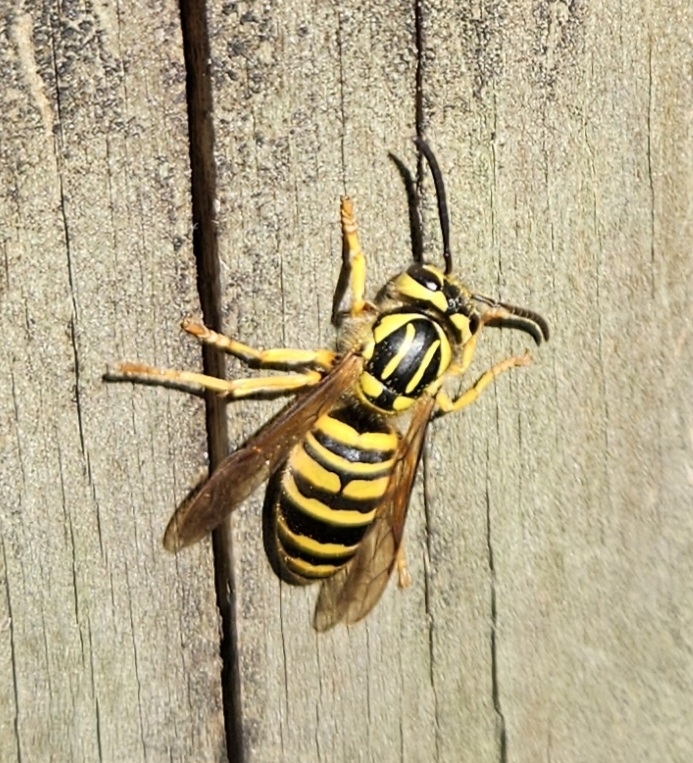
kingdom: Animalia
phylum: Arthropoda
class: Insecta
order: Hymenoptera
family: Vespidae
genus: Vespula
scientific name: Vespula squamosa
